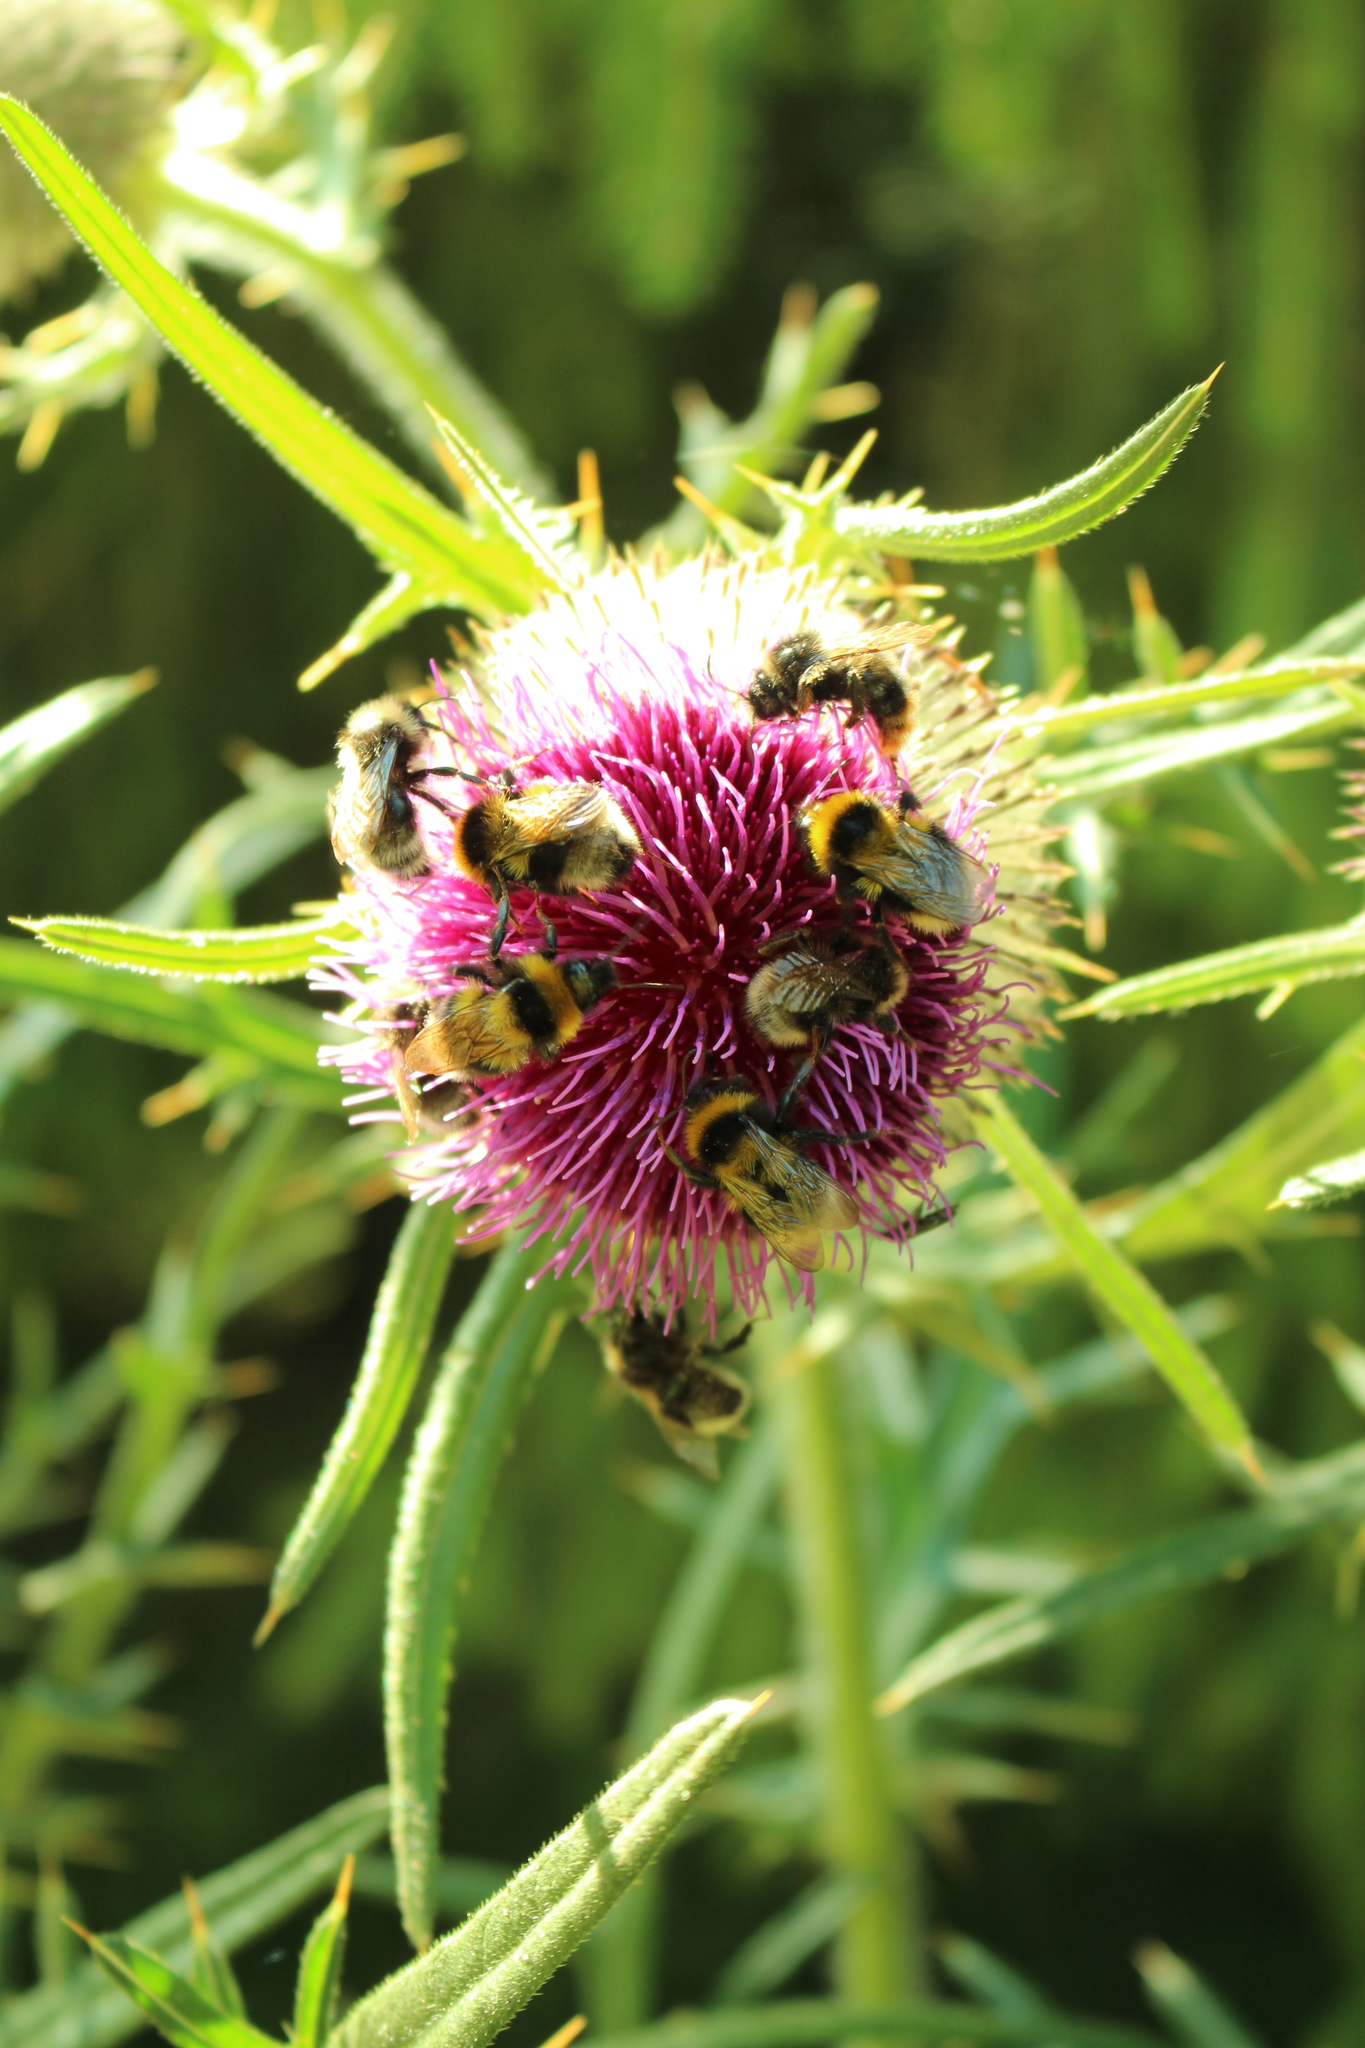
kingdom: Plantae
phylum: Tracheophyta
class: Magnoliopsida
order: Asterales
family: Asteraceae
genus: Lophiolepis
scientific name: Lophiolepis eriophora
